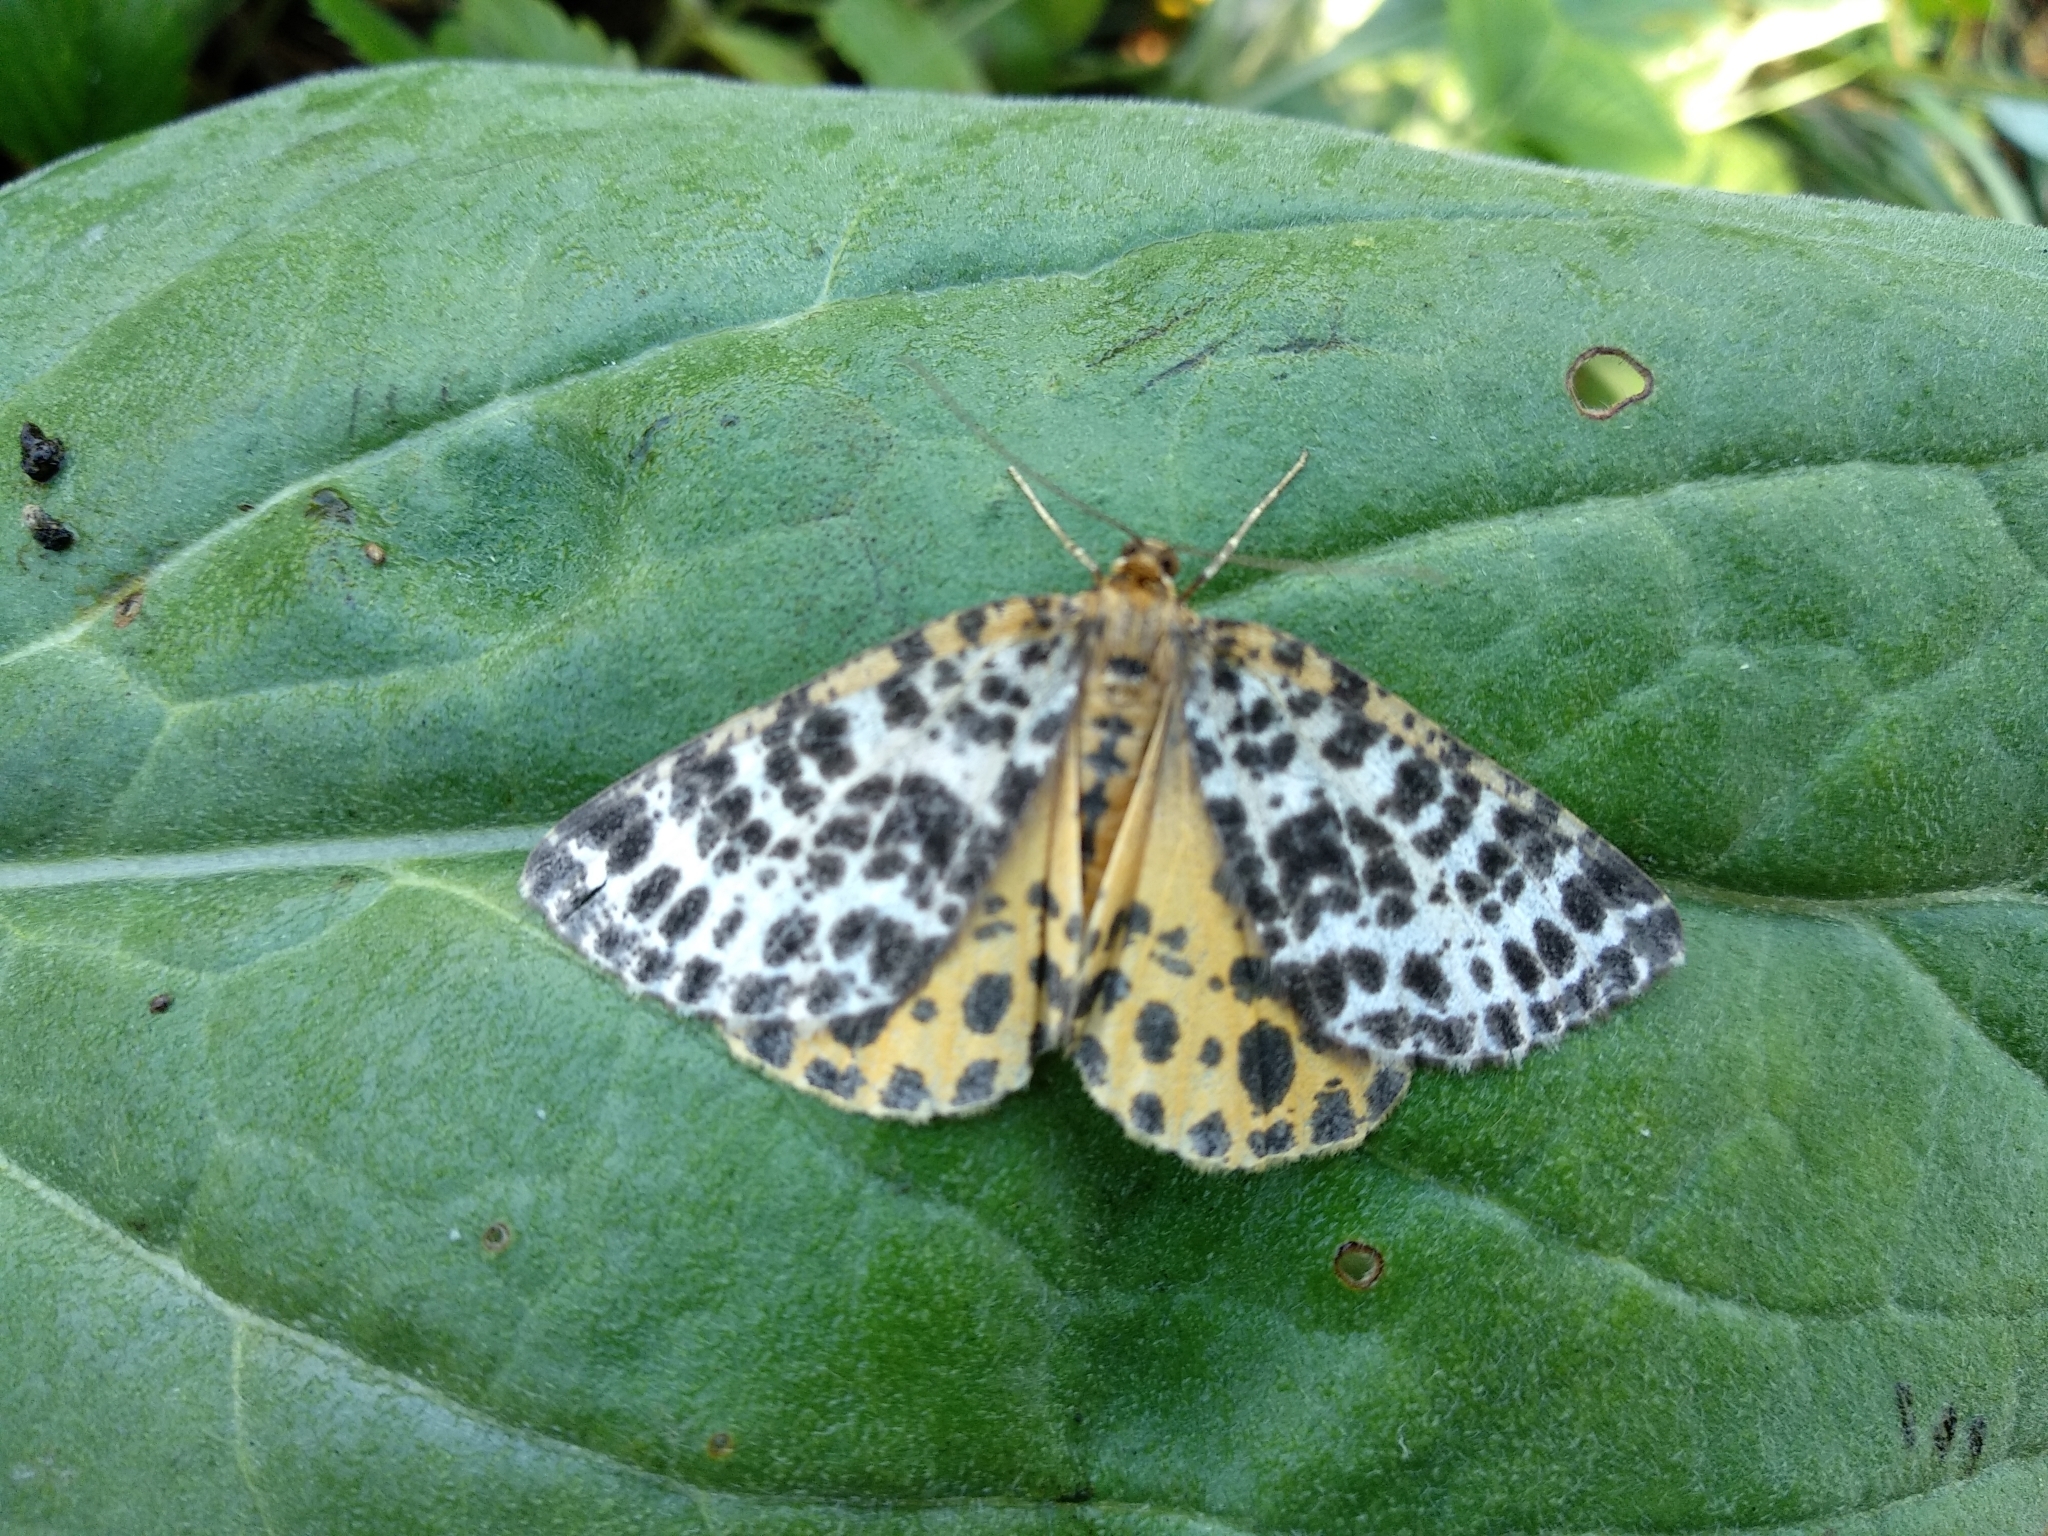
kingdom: Animalia
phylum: Arthropoda
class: Insecta
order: Lepidoptera
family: Geometridae
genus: Arichanna
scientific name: Arichanna melanaria
